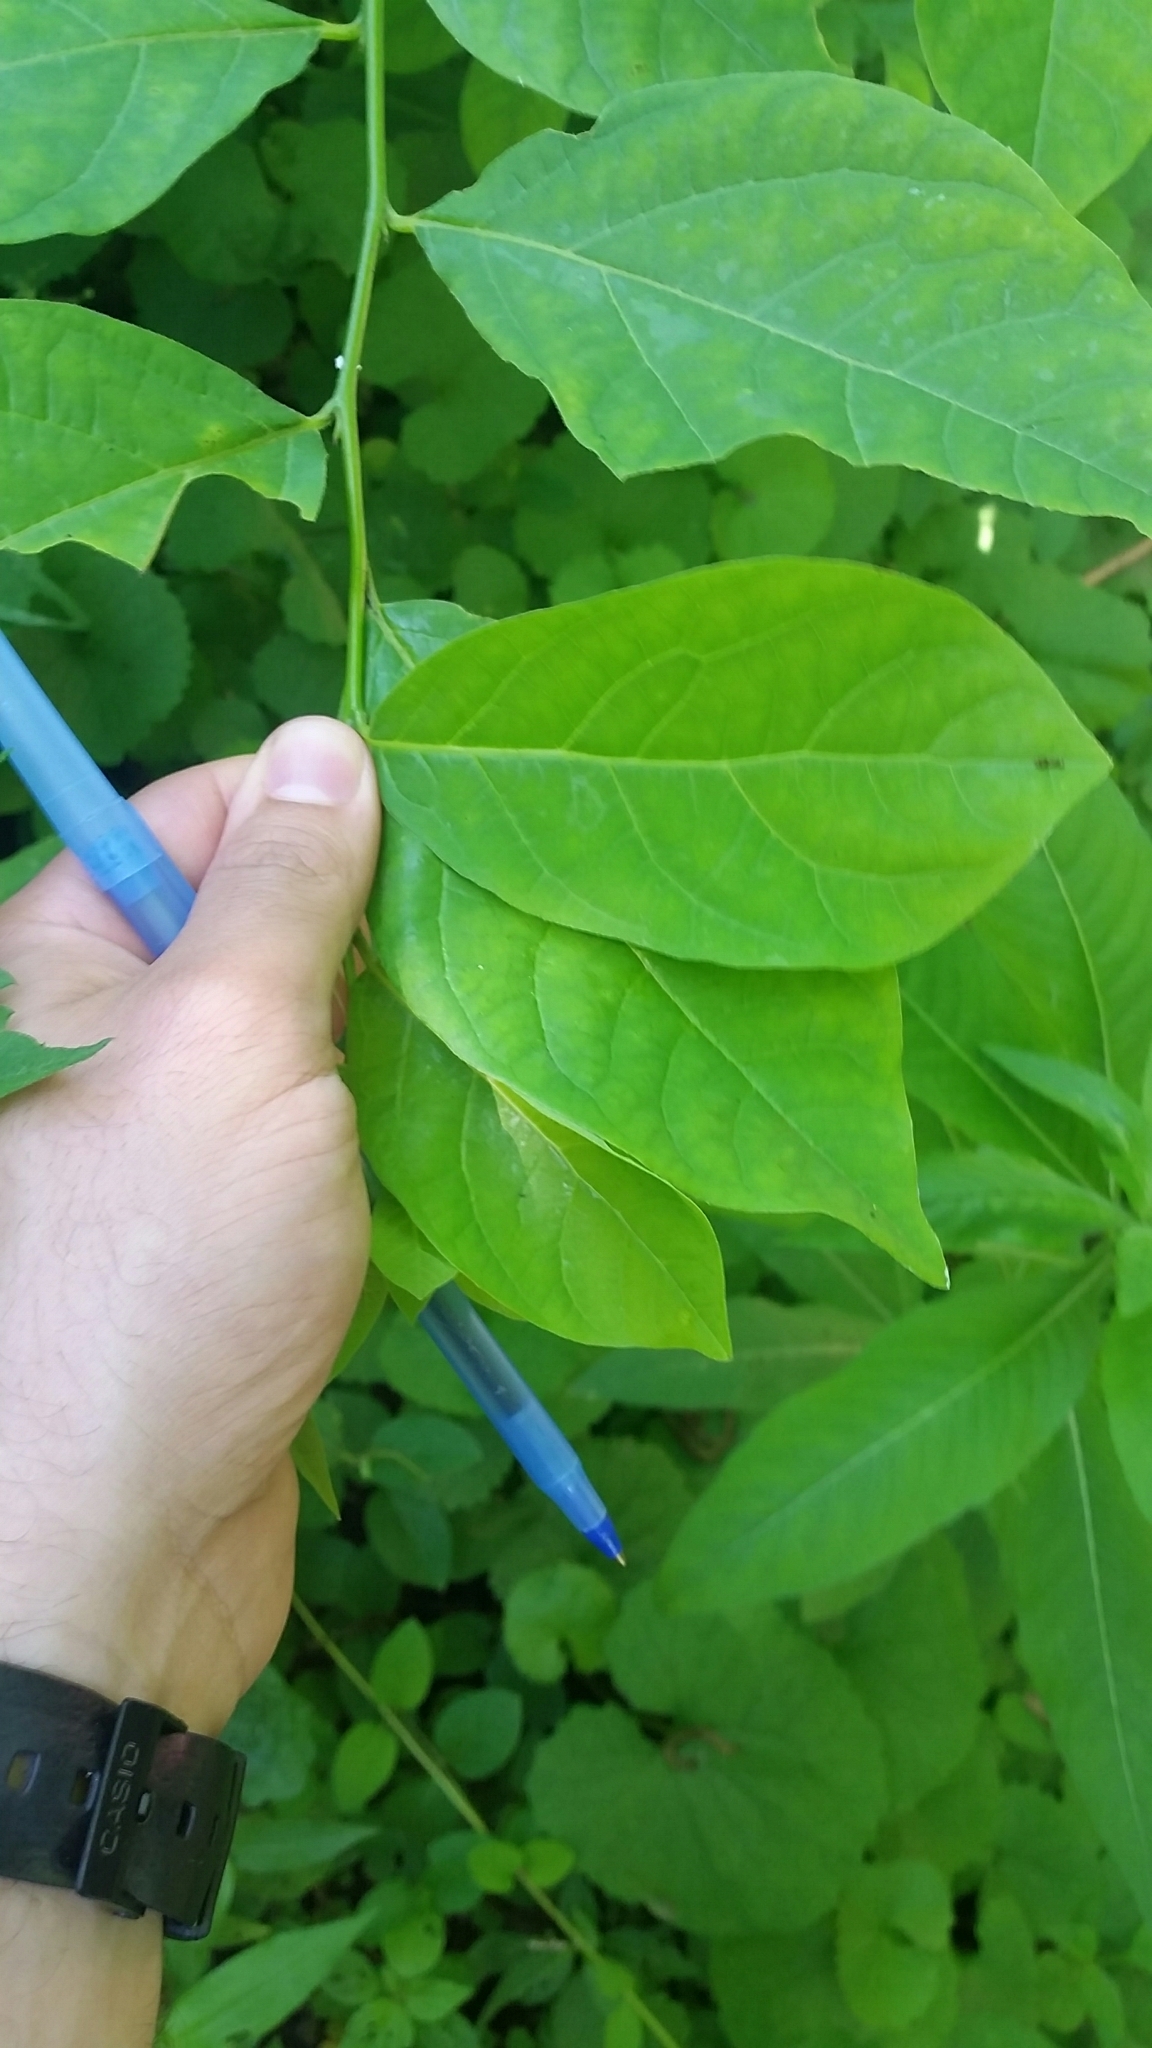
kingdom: Plantae
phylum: Tracheophyta
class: Magnoliopsida
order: Laurales
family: Lauraceae
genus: Lindera
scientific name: Lindera benzoin
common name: Spicebush
